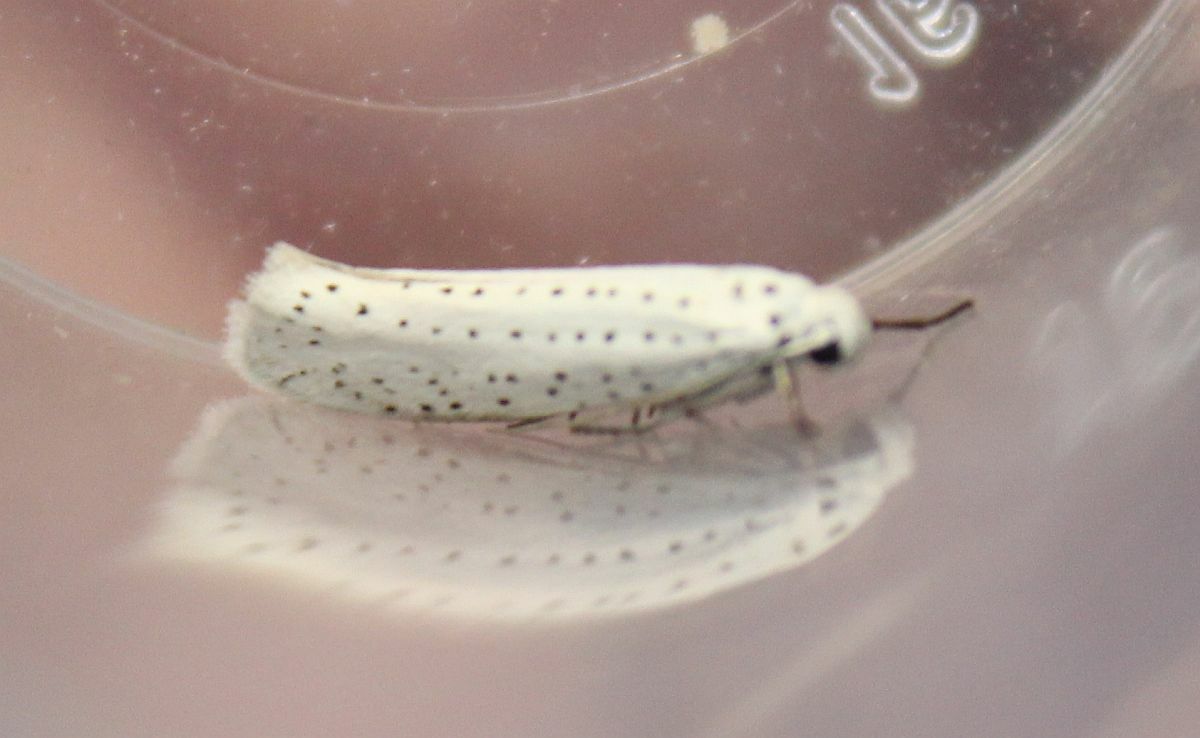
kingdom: Animalia
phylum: Arthropoda
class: Insecta
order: Lepidoptera
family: Yponomeutidae
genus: Yponomeuta
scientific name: Yponomeuta evonymella
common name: Bird-cherry ermine
